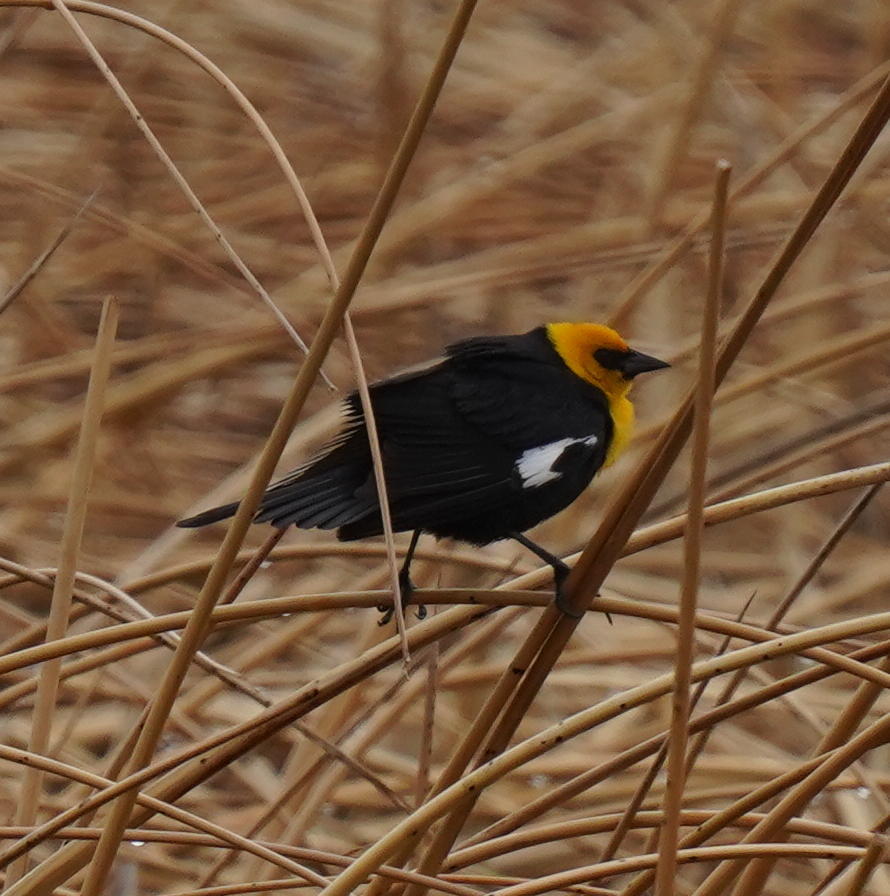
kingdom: Animalia
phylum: Chordata
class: Aves
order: Passeriformes
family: Icteridae
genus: Xanthocephalus
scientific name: Xanthocephalus xanthocephalus
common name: Yellow-headed blackbird
